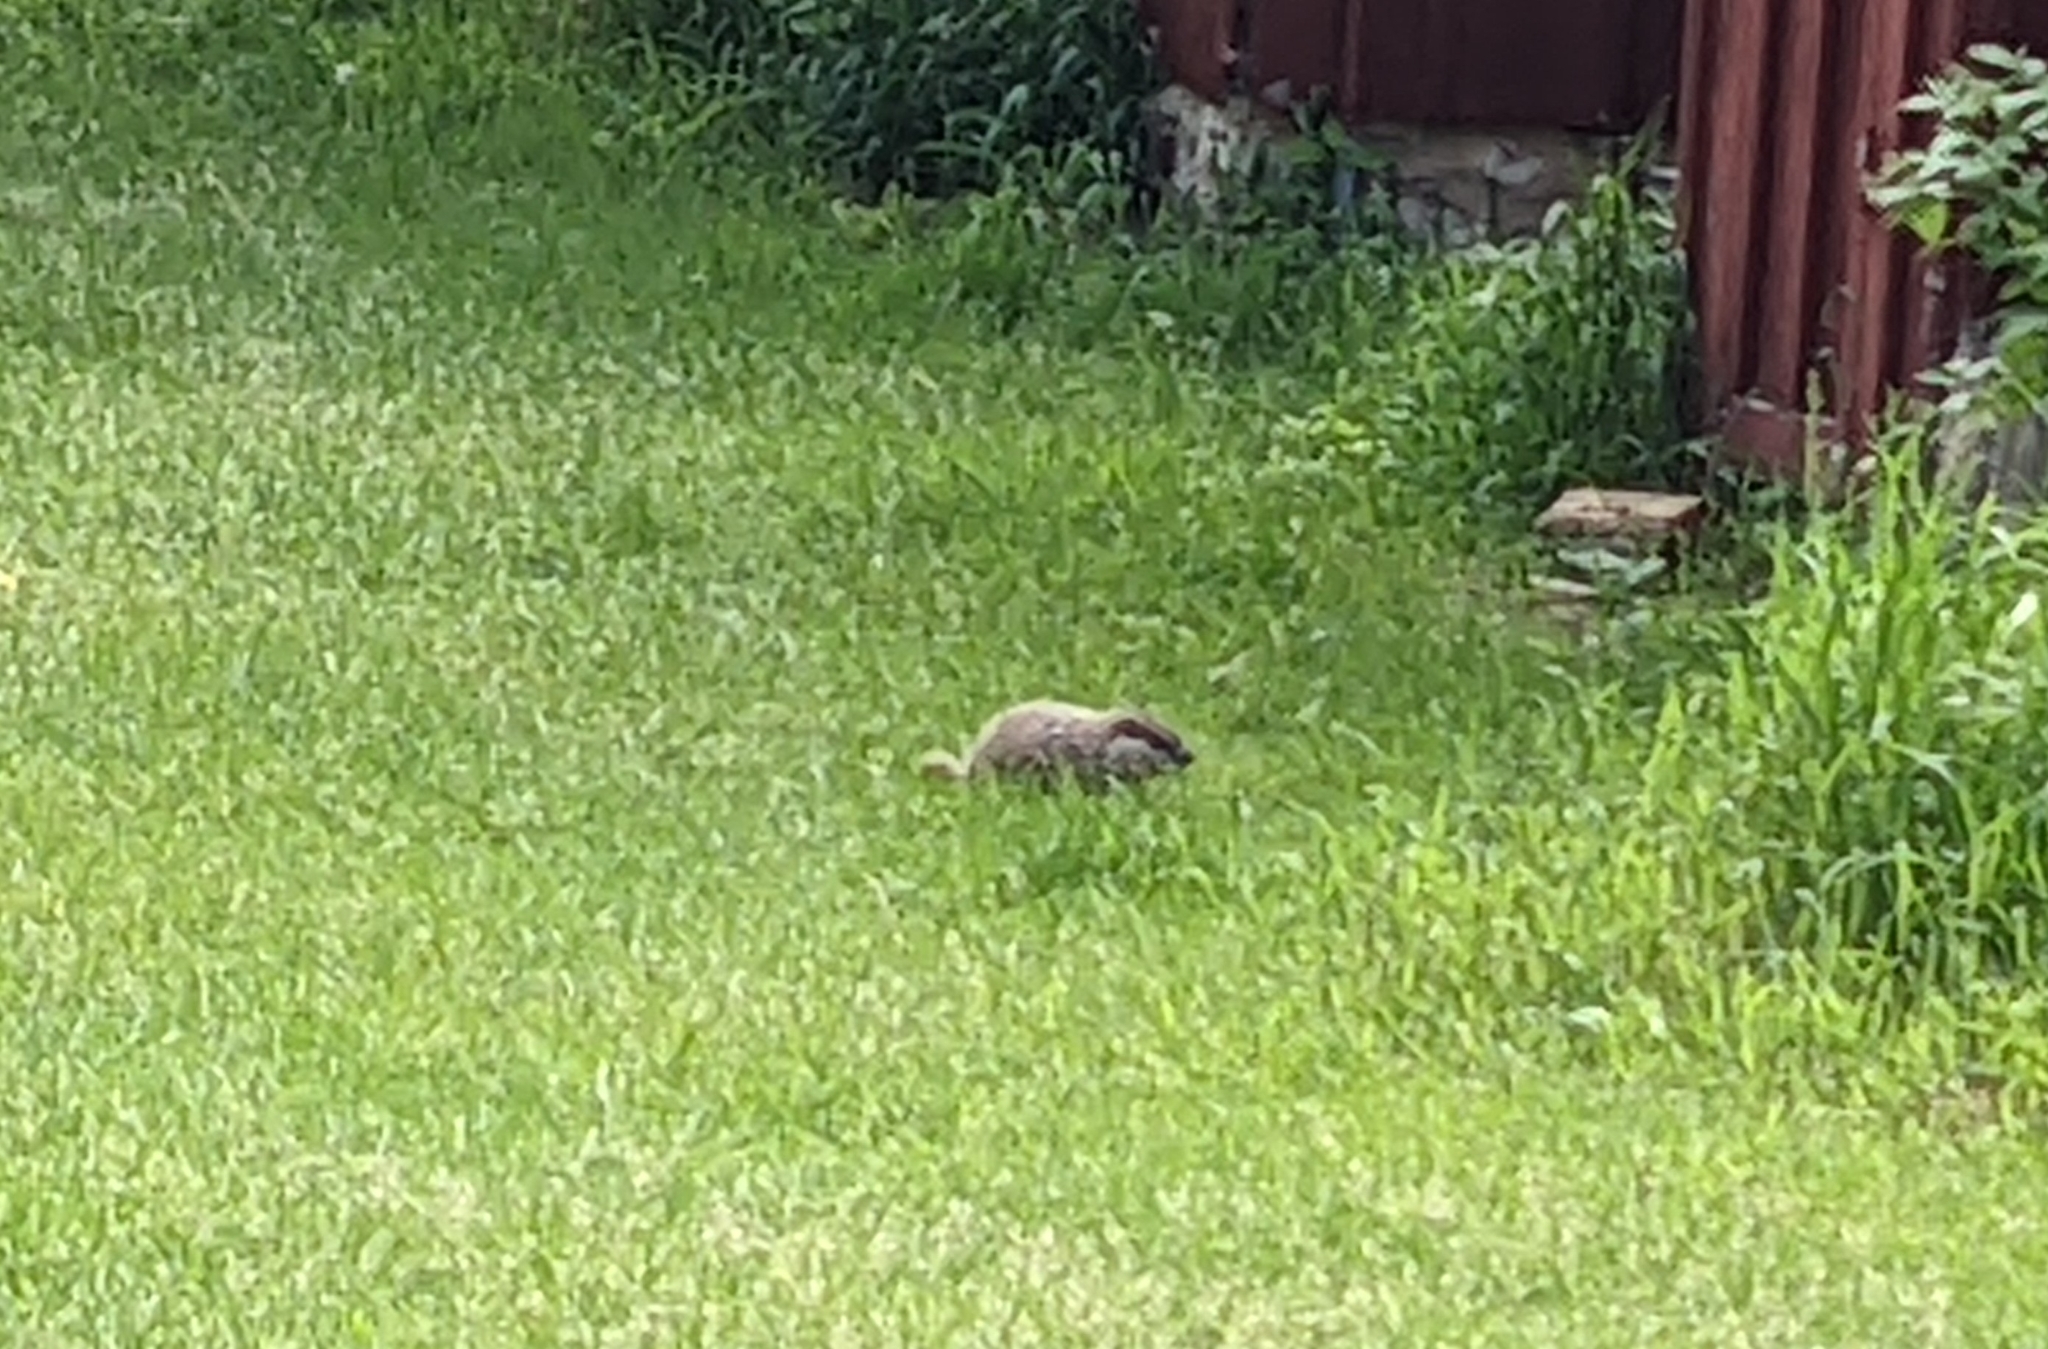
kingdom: Animalia
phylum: Chordata
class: Mammalia
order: Rodentia
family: Sciuridae
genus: Marmota
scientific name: Marmota monax
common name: Groundhog
